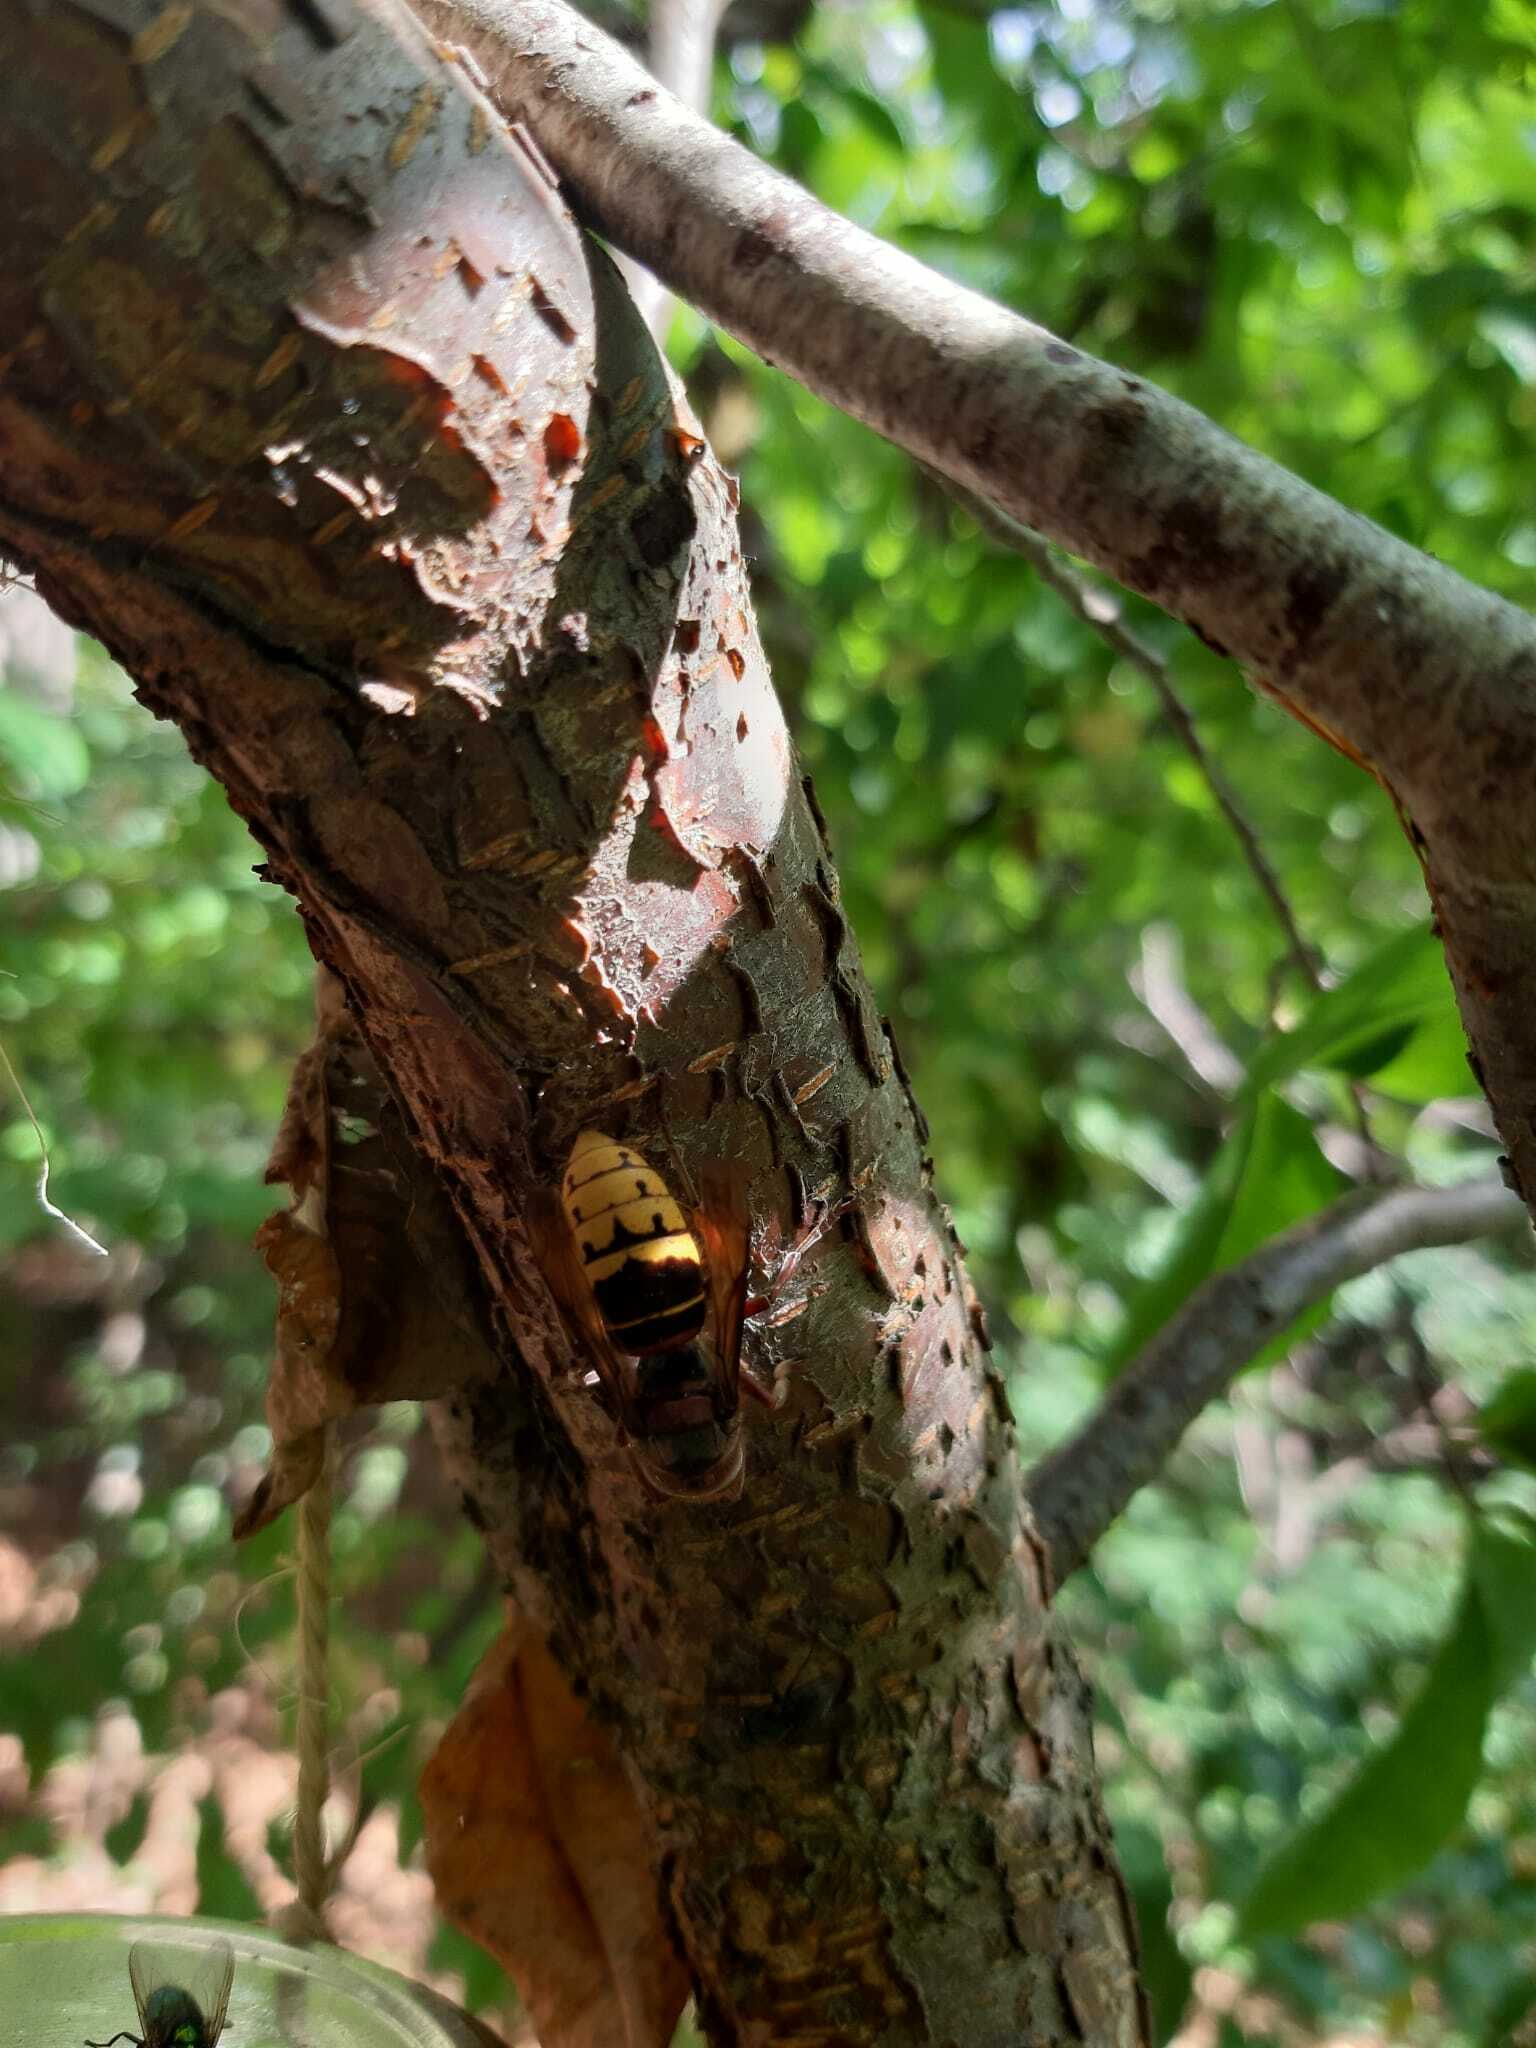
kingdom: Animalia
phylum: Arthropoda
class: Insecta
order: Hymenoptera
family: Vespidae
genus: Vespa
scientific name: Vespa crabro
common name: Hornet
